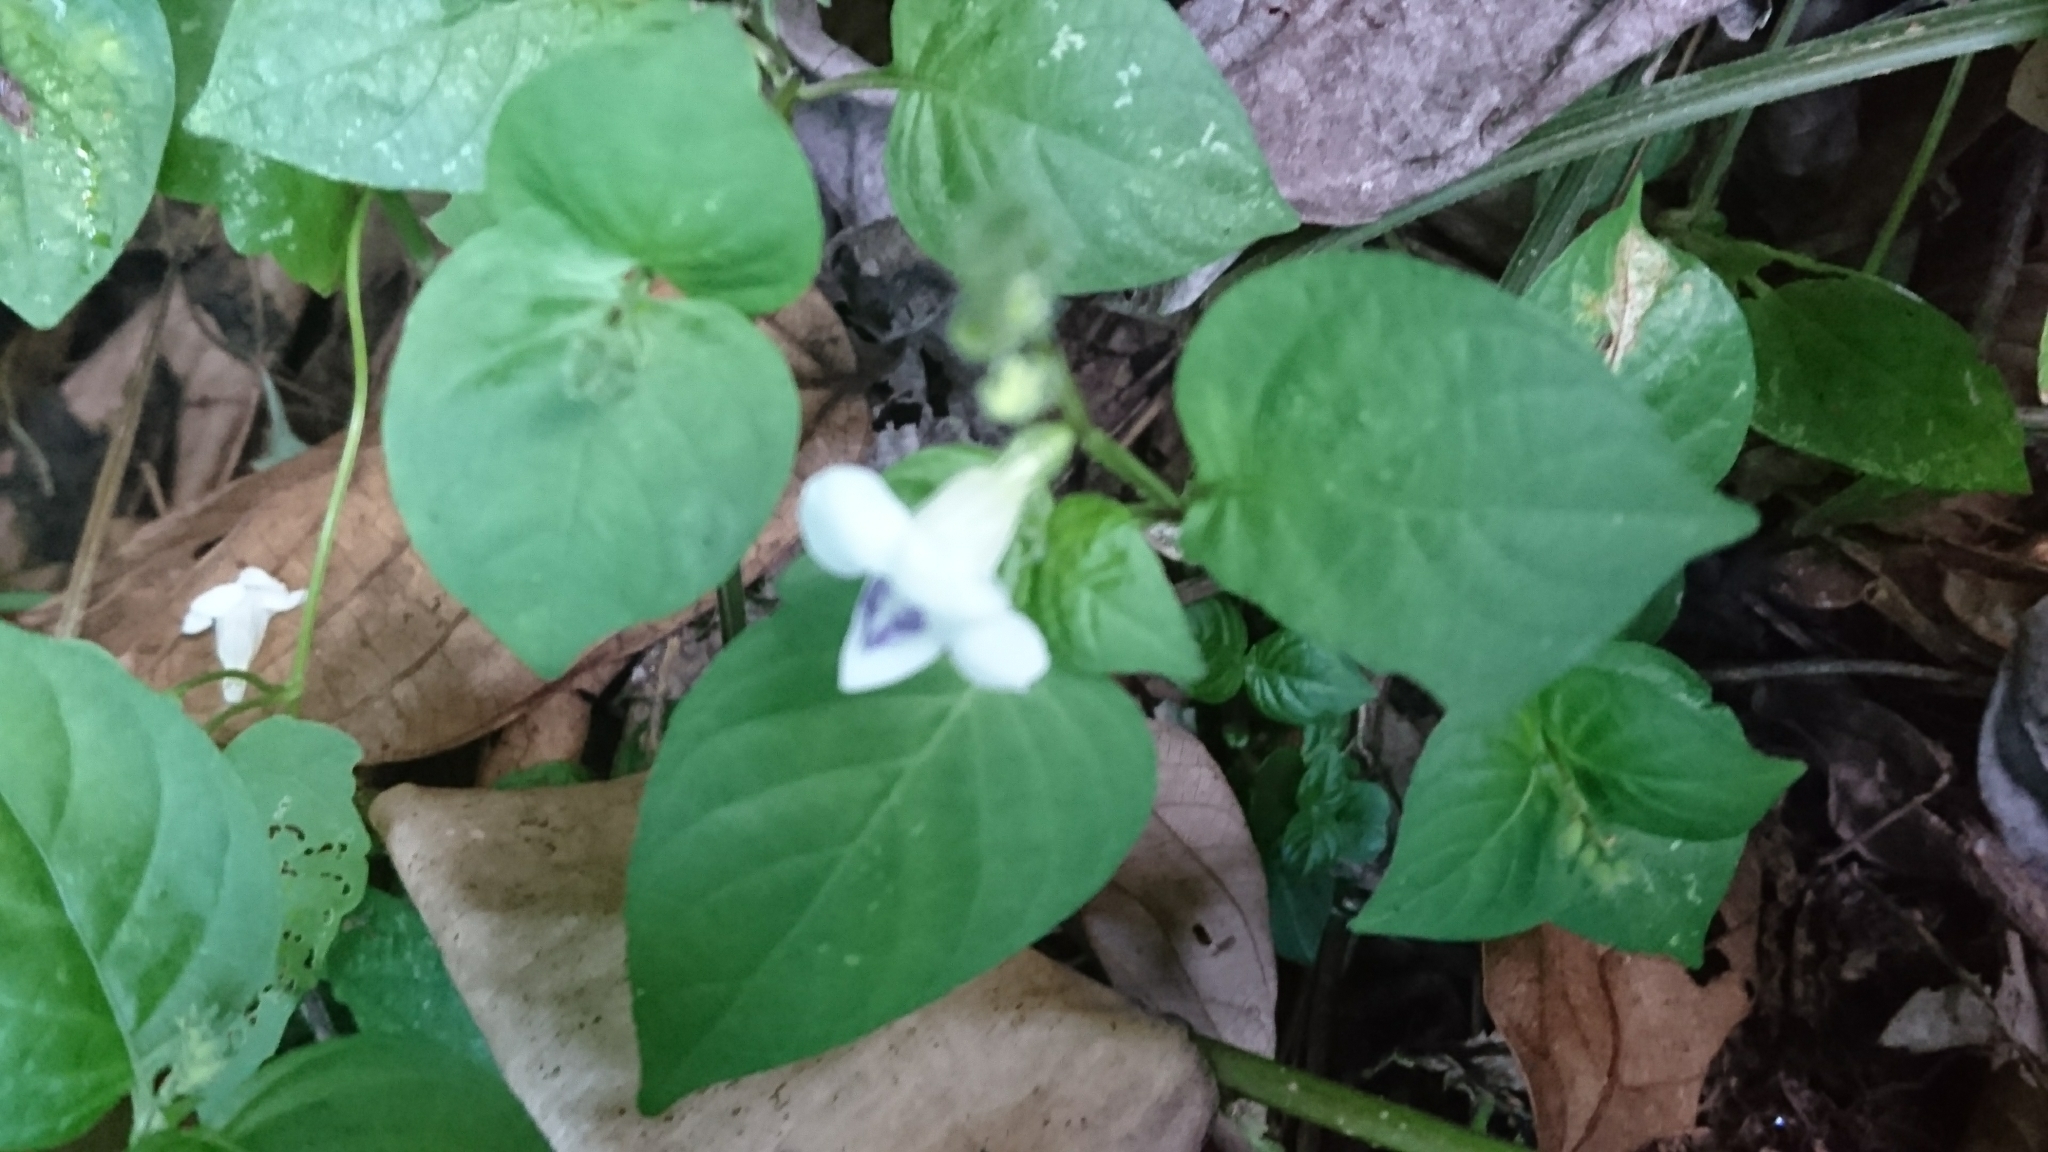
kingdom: Plantae
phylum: Tracheophyta
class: Magnoliopsida
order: Lamiales
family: Acanthaceae
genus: Asystasia
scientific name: Asystasia intrusa
